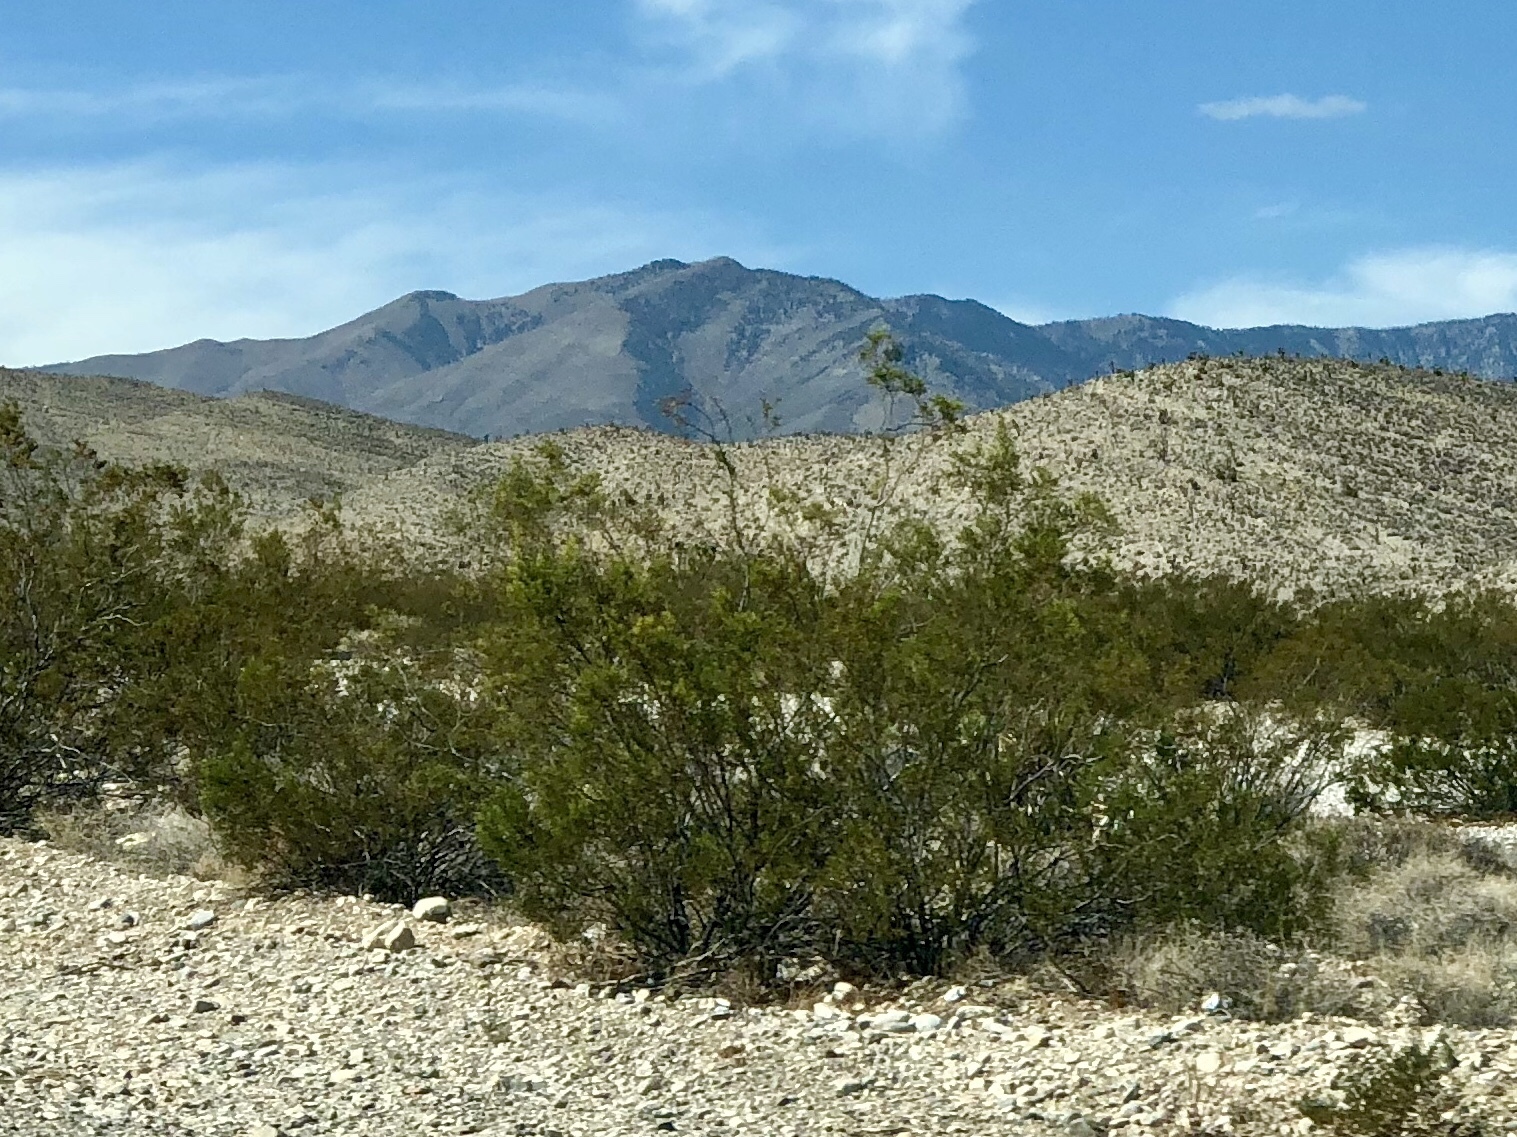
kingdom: Plantae
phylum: Tracheophyta
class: Magnoliopsida
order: Zygophyllales
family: Zygophyllaceae
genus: Larrea
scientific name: Larrea tridentata
